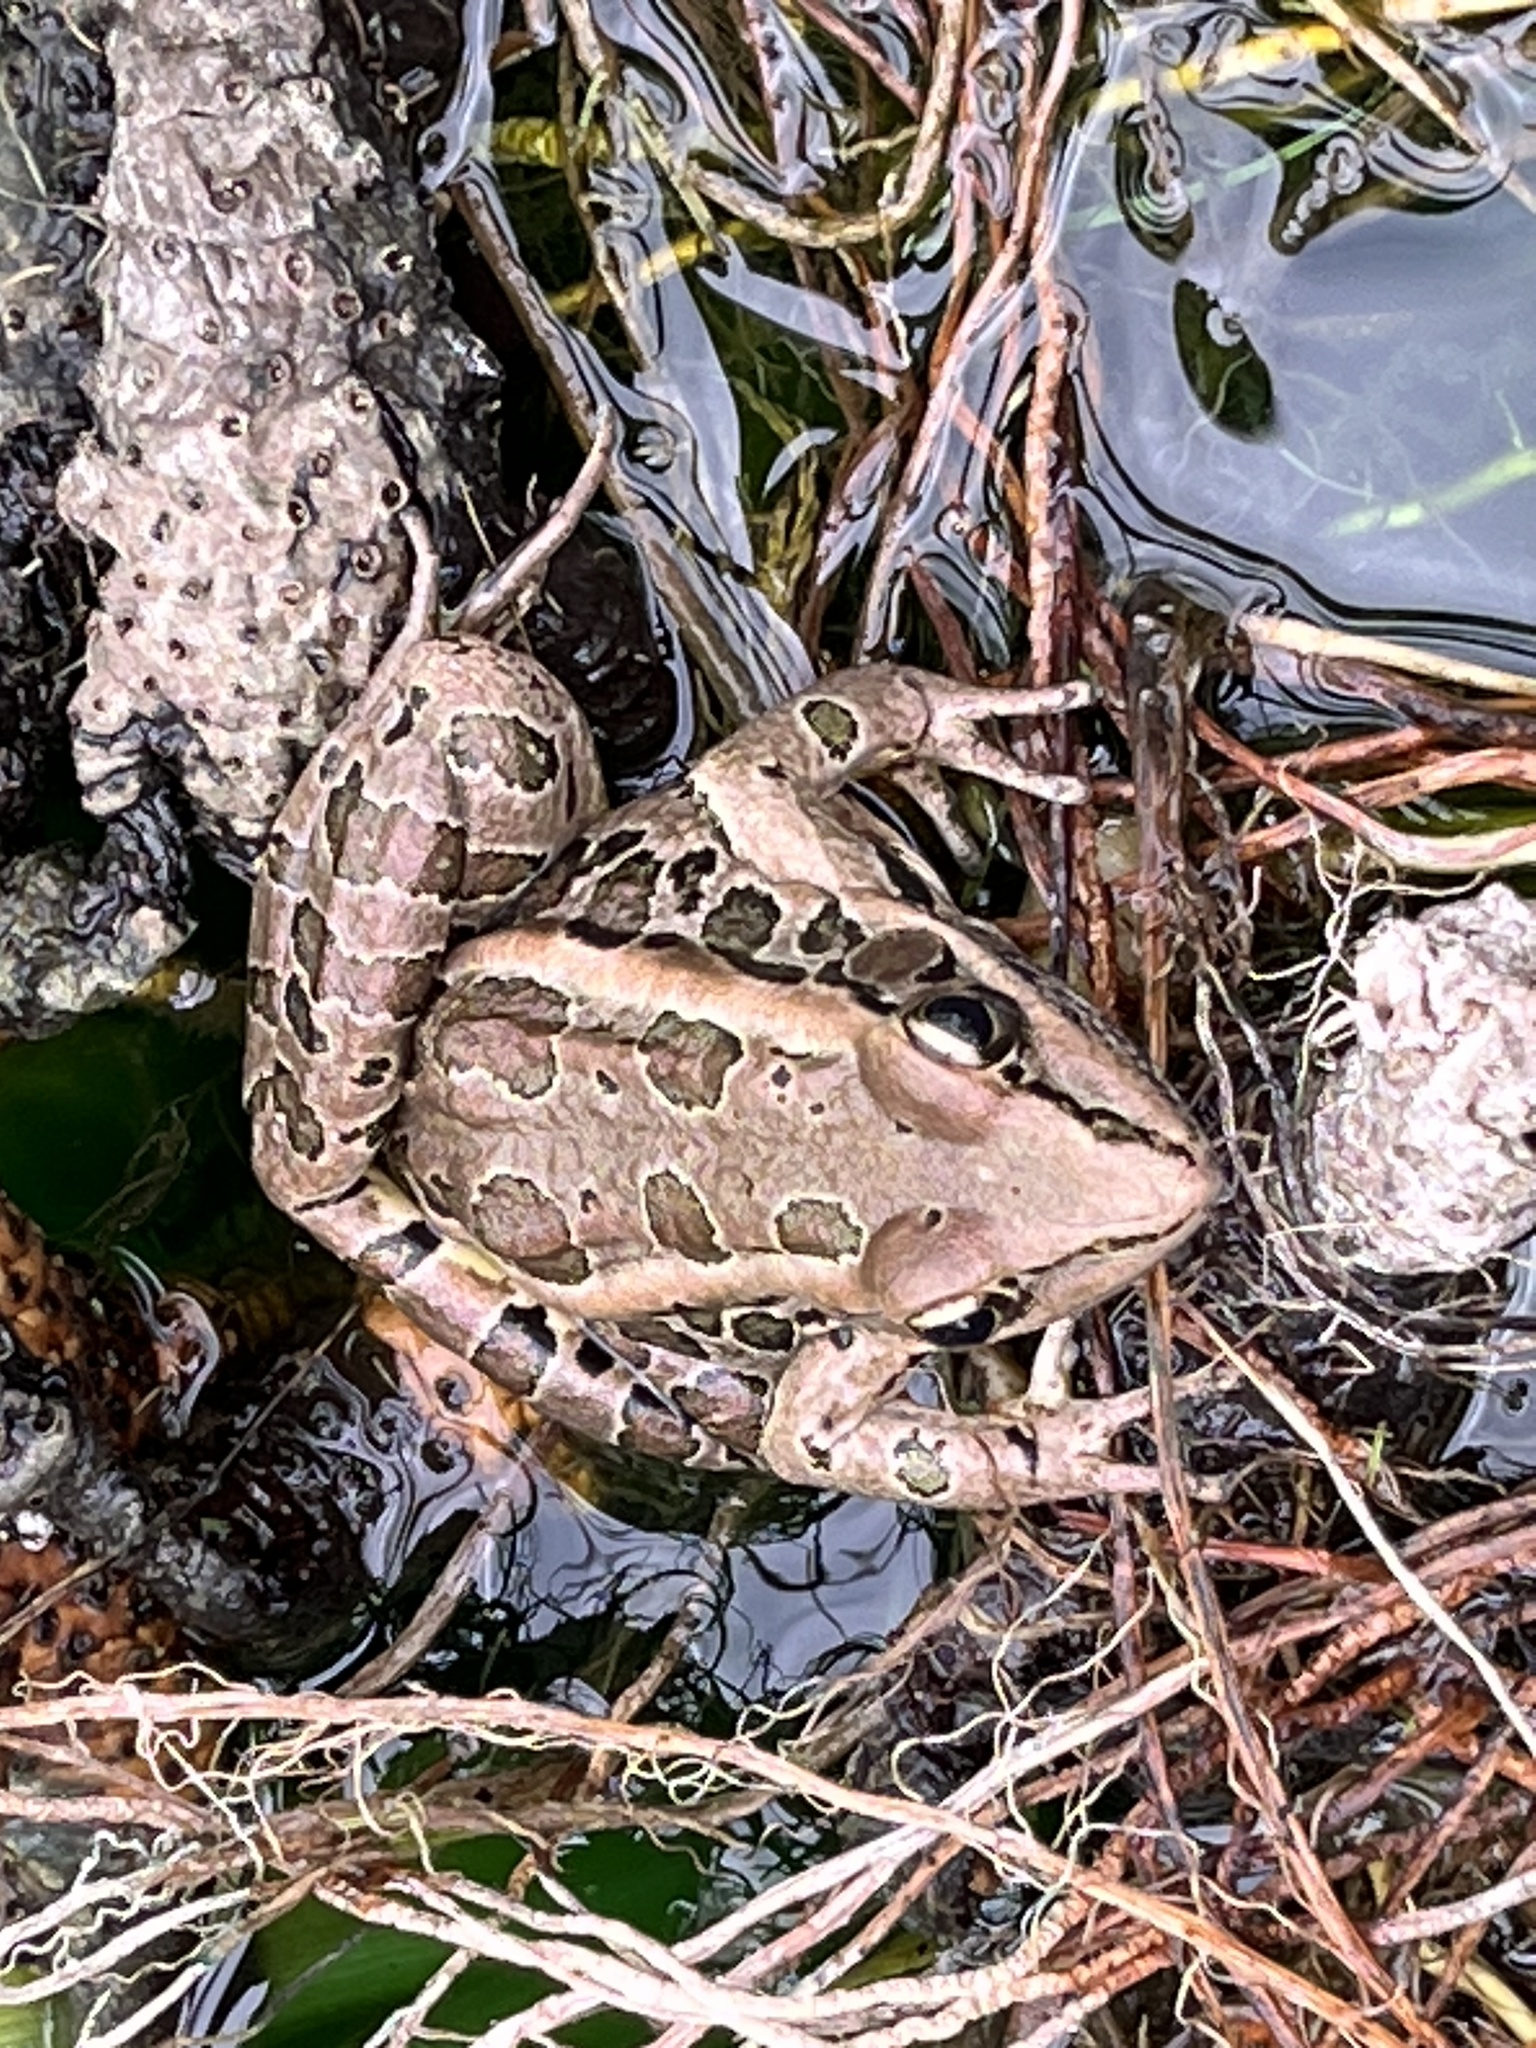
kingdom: Animalia
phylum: Chordata
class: Amphibia
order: Anura
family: Ranidae
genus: Lithobates
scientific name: Lithobates palustris
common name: Pickerel frog
